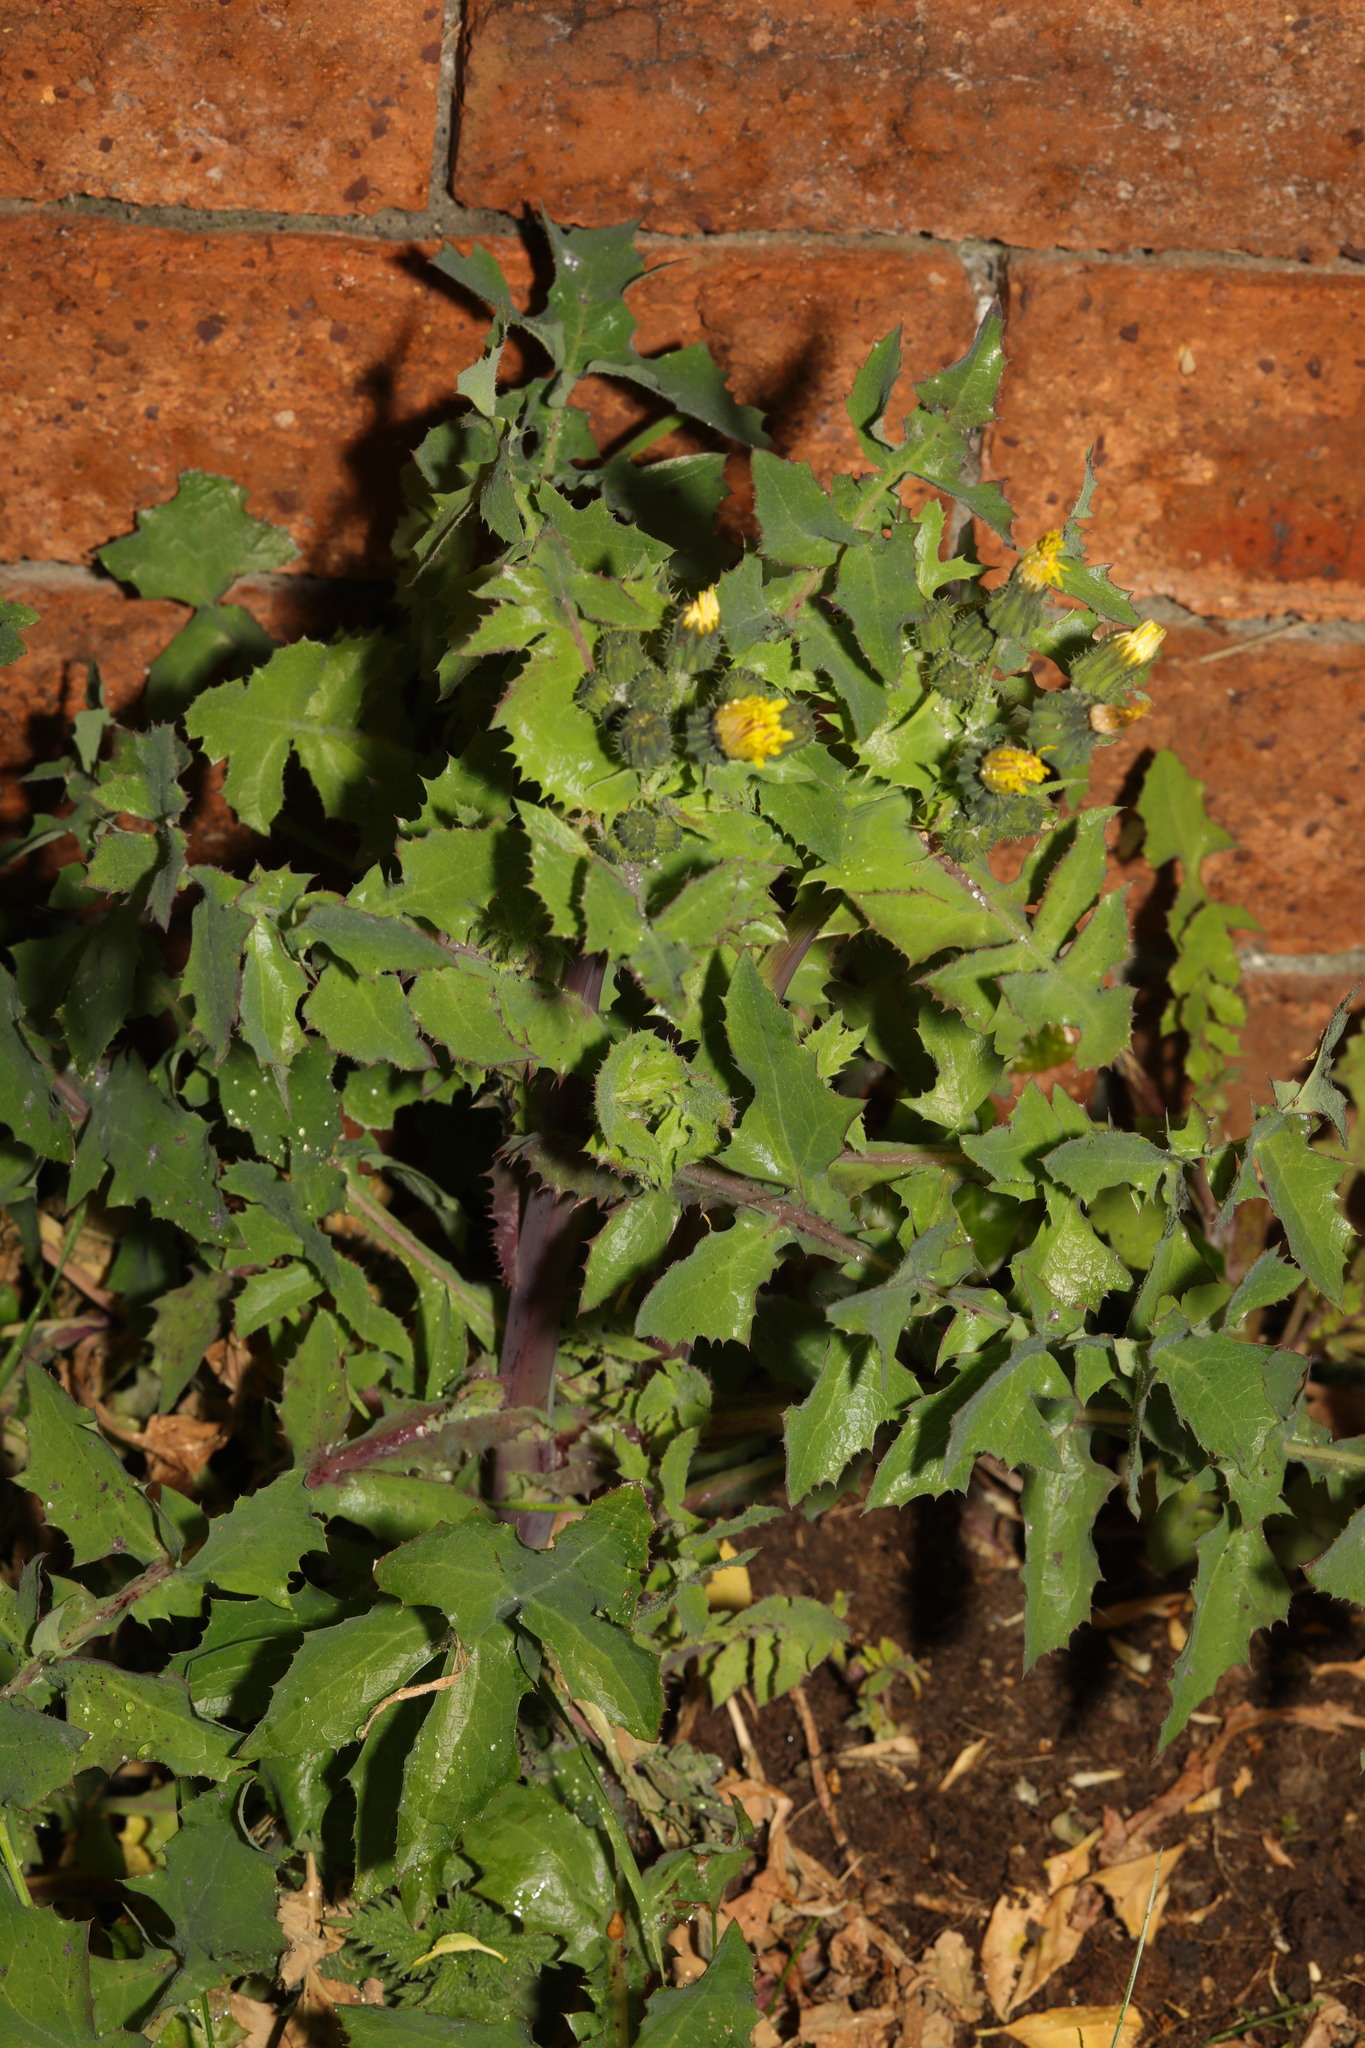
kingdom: Plantae
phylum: Tracheophyta
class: Magnoliopsida
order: Asterales
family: Asteraceae
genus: Sonchus
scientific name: Sonchus oleraceus
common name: Common sowthistle
